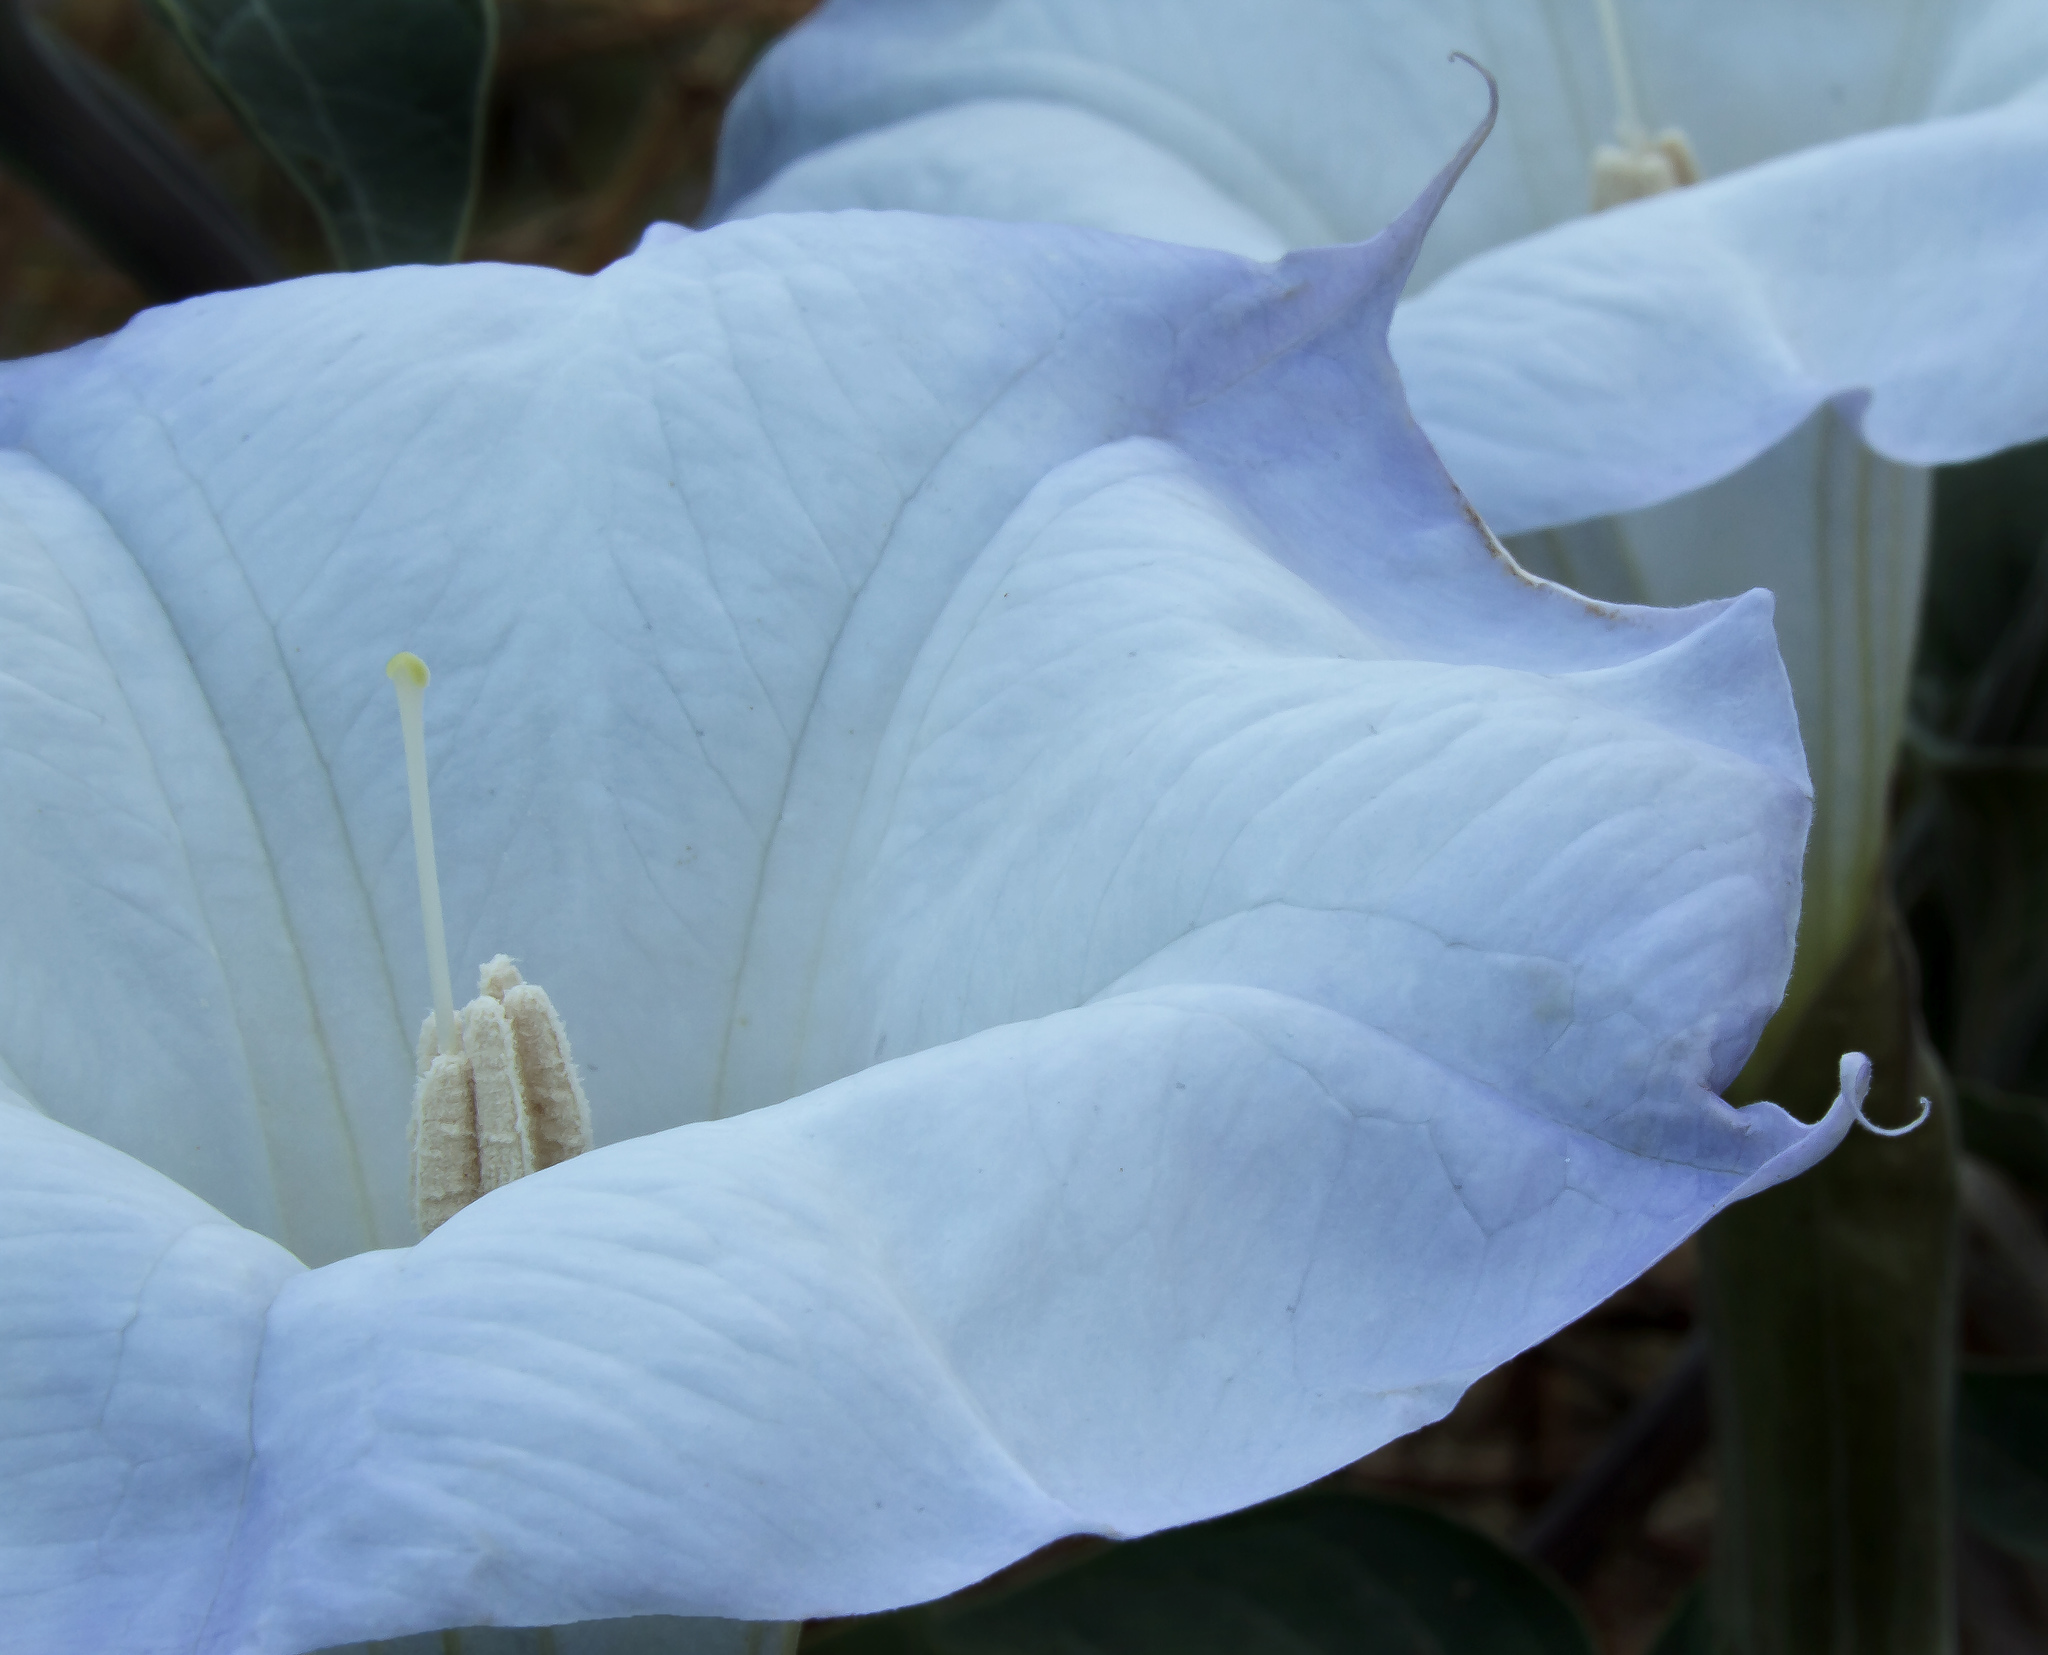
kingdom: Plantae
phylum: Tracheophyta
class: Magnoliopsida
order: Solanales
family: Solanaceae
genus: Datura
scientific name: Datura wrightii
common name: Sacred thorn-apple
